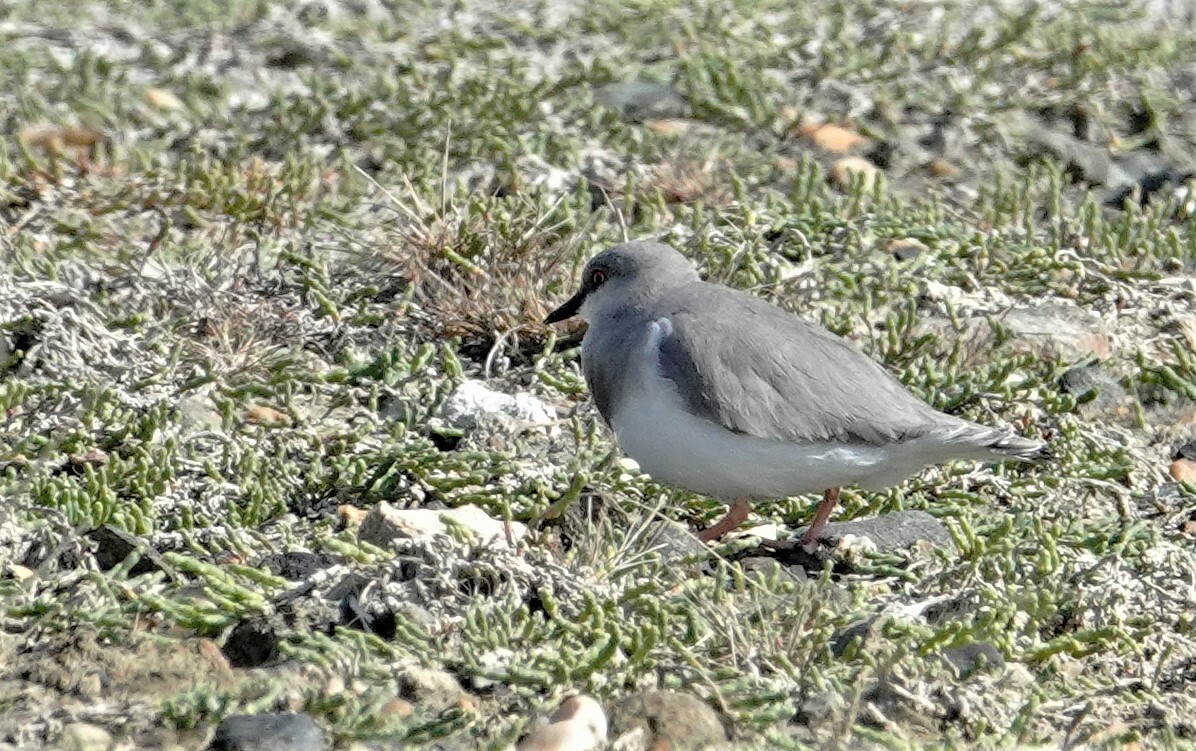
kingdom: Animalia
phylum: Chordata
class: Aves
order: Charadriiformes
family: Pluvianellidae
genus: Pluvianellus
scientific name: Pluvianellus socialis
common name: Magellanic plover
